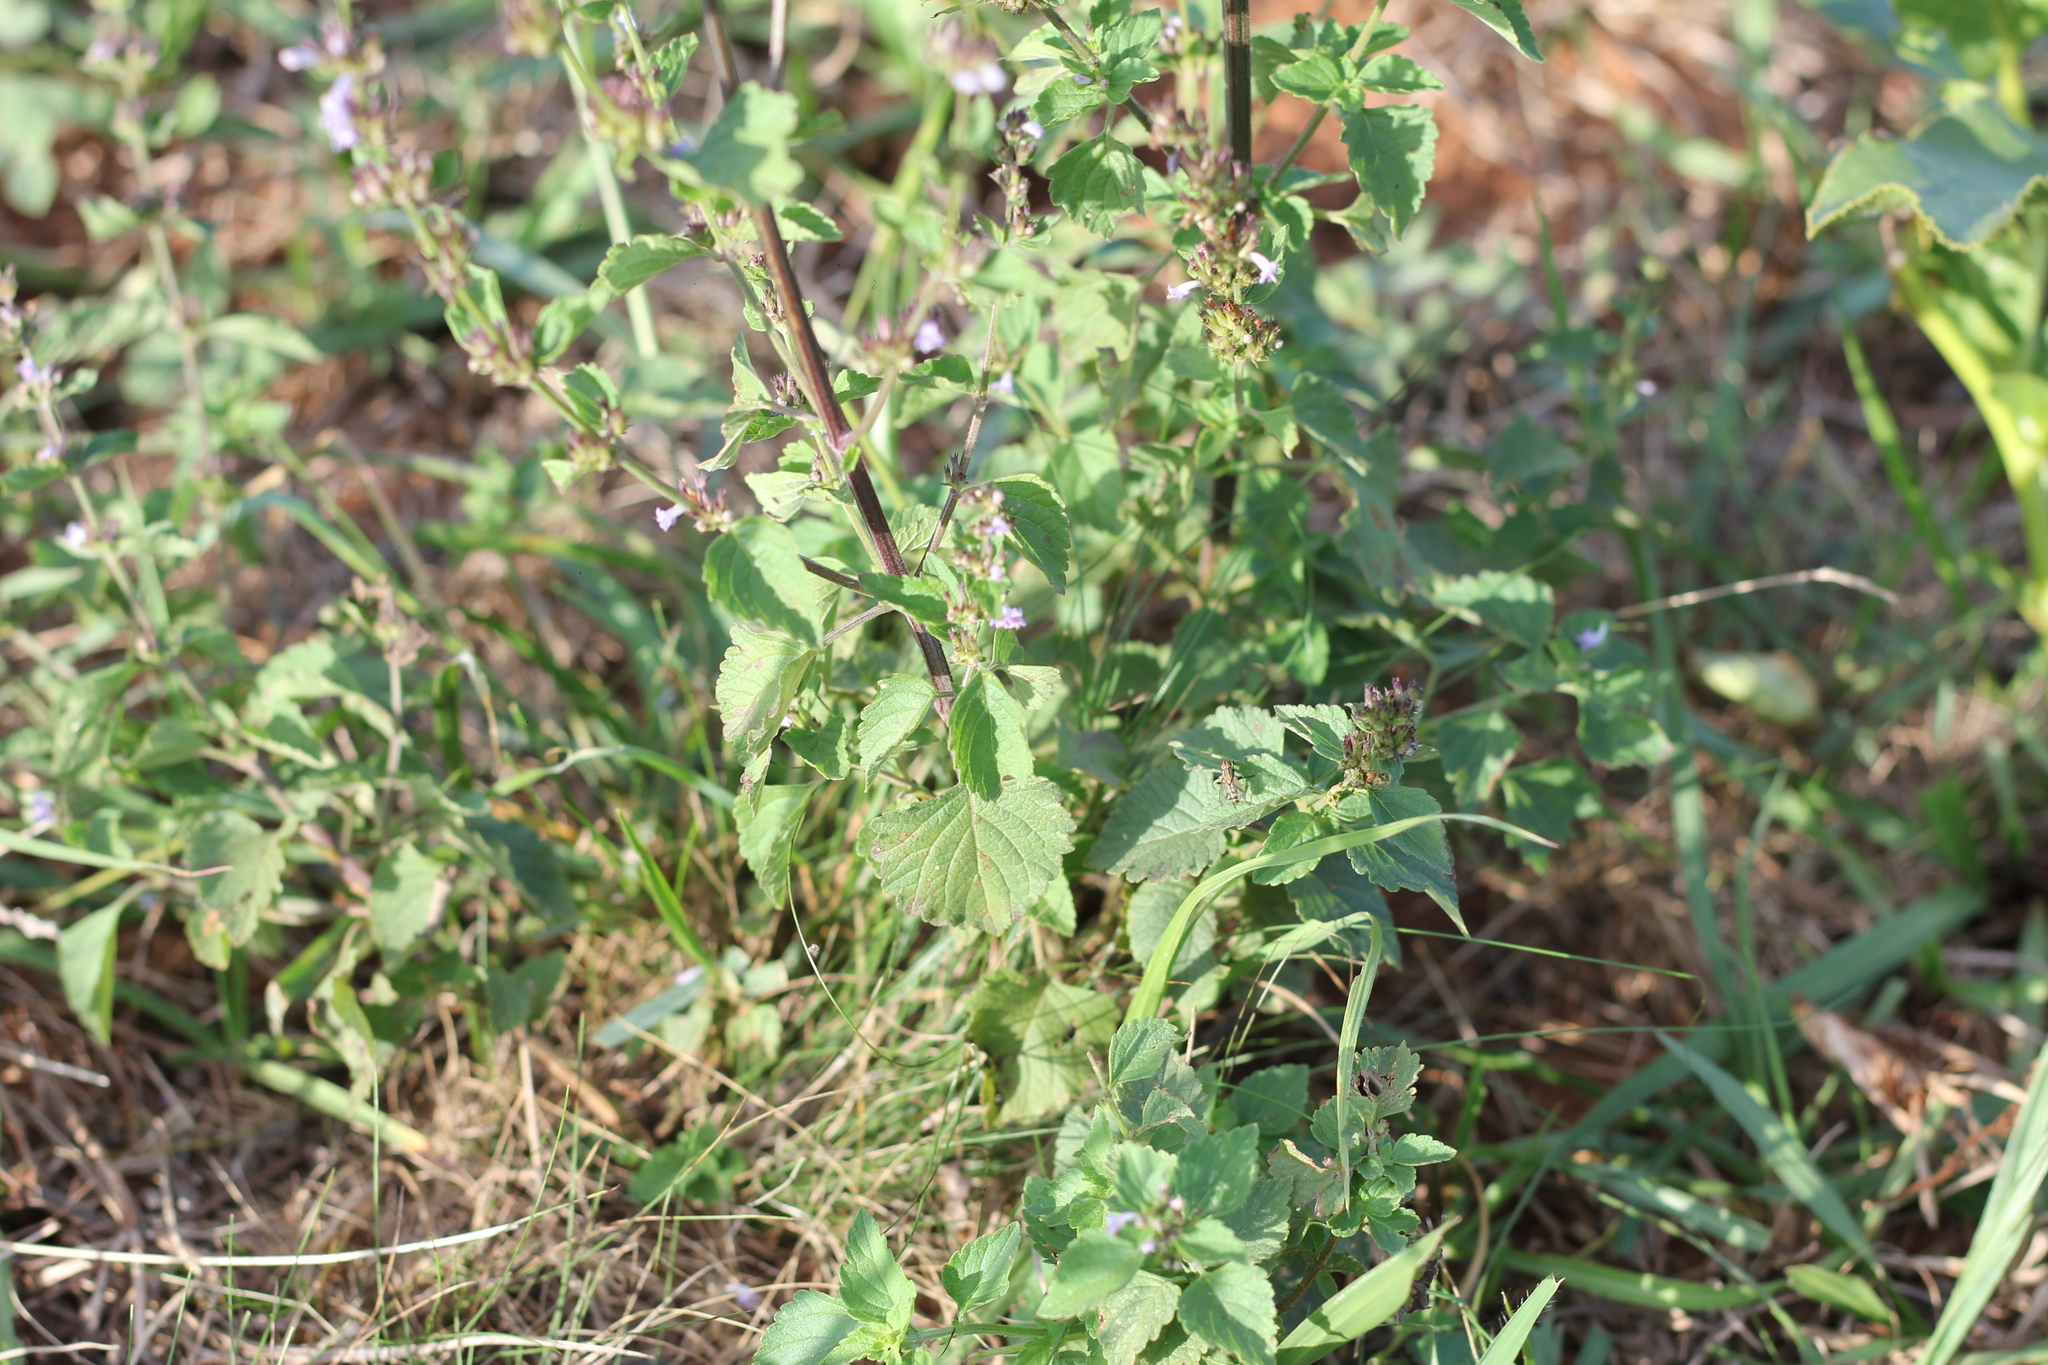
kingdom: Plantae
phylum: Tracheophyta
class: Magnoliopsida
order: Lamiales
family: Lamiaceae
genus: Cantinoa
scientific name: Cantinoa mutabilis
